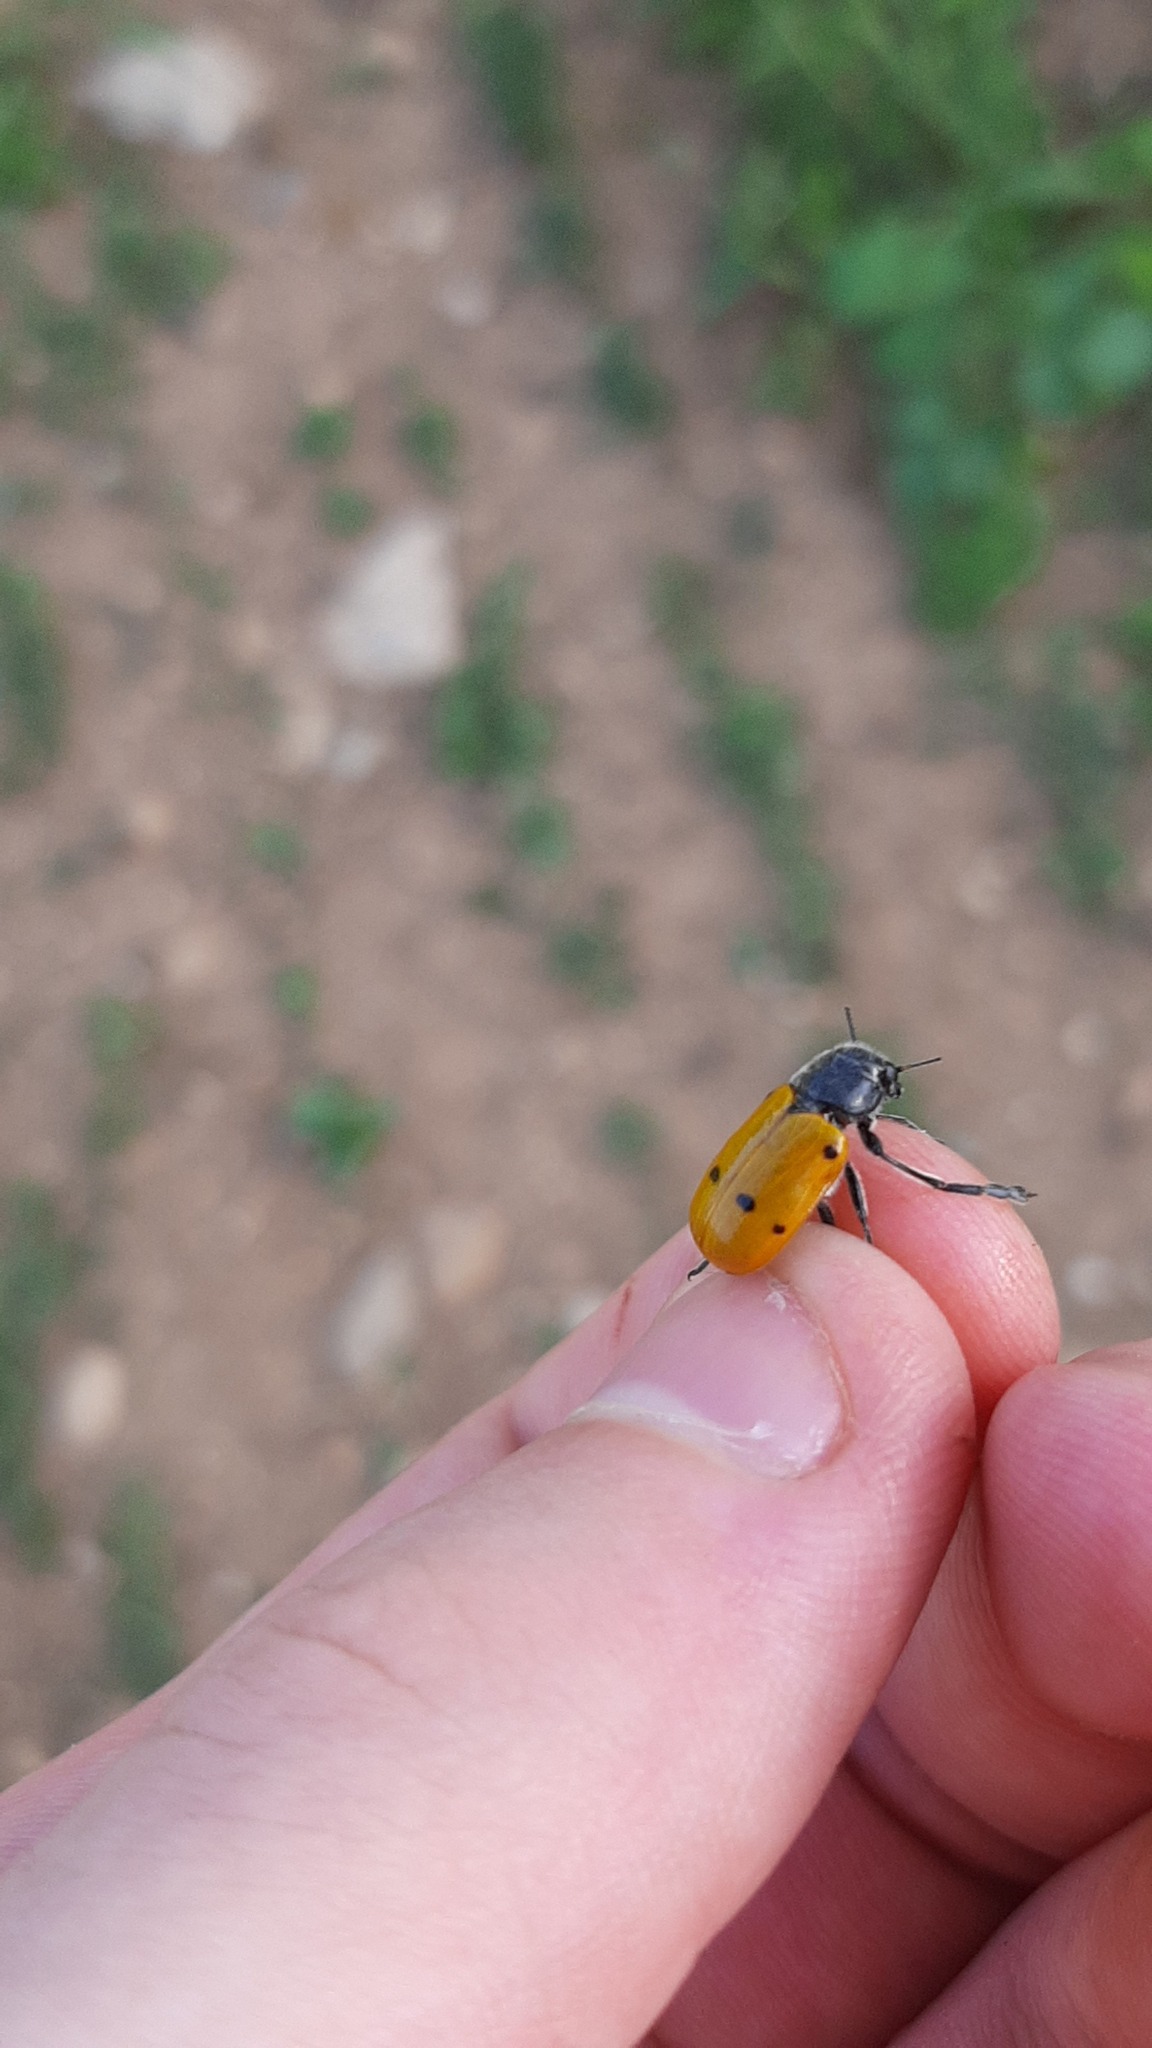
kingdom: Animalia
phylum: Arthropoda
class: Insecta
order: Coleoptera
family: Chrysomelidae
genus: Lachnaia
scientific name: Lachnaia italica
